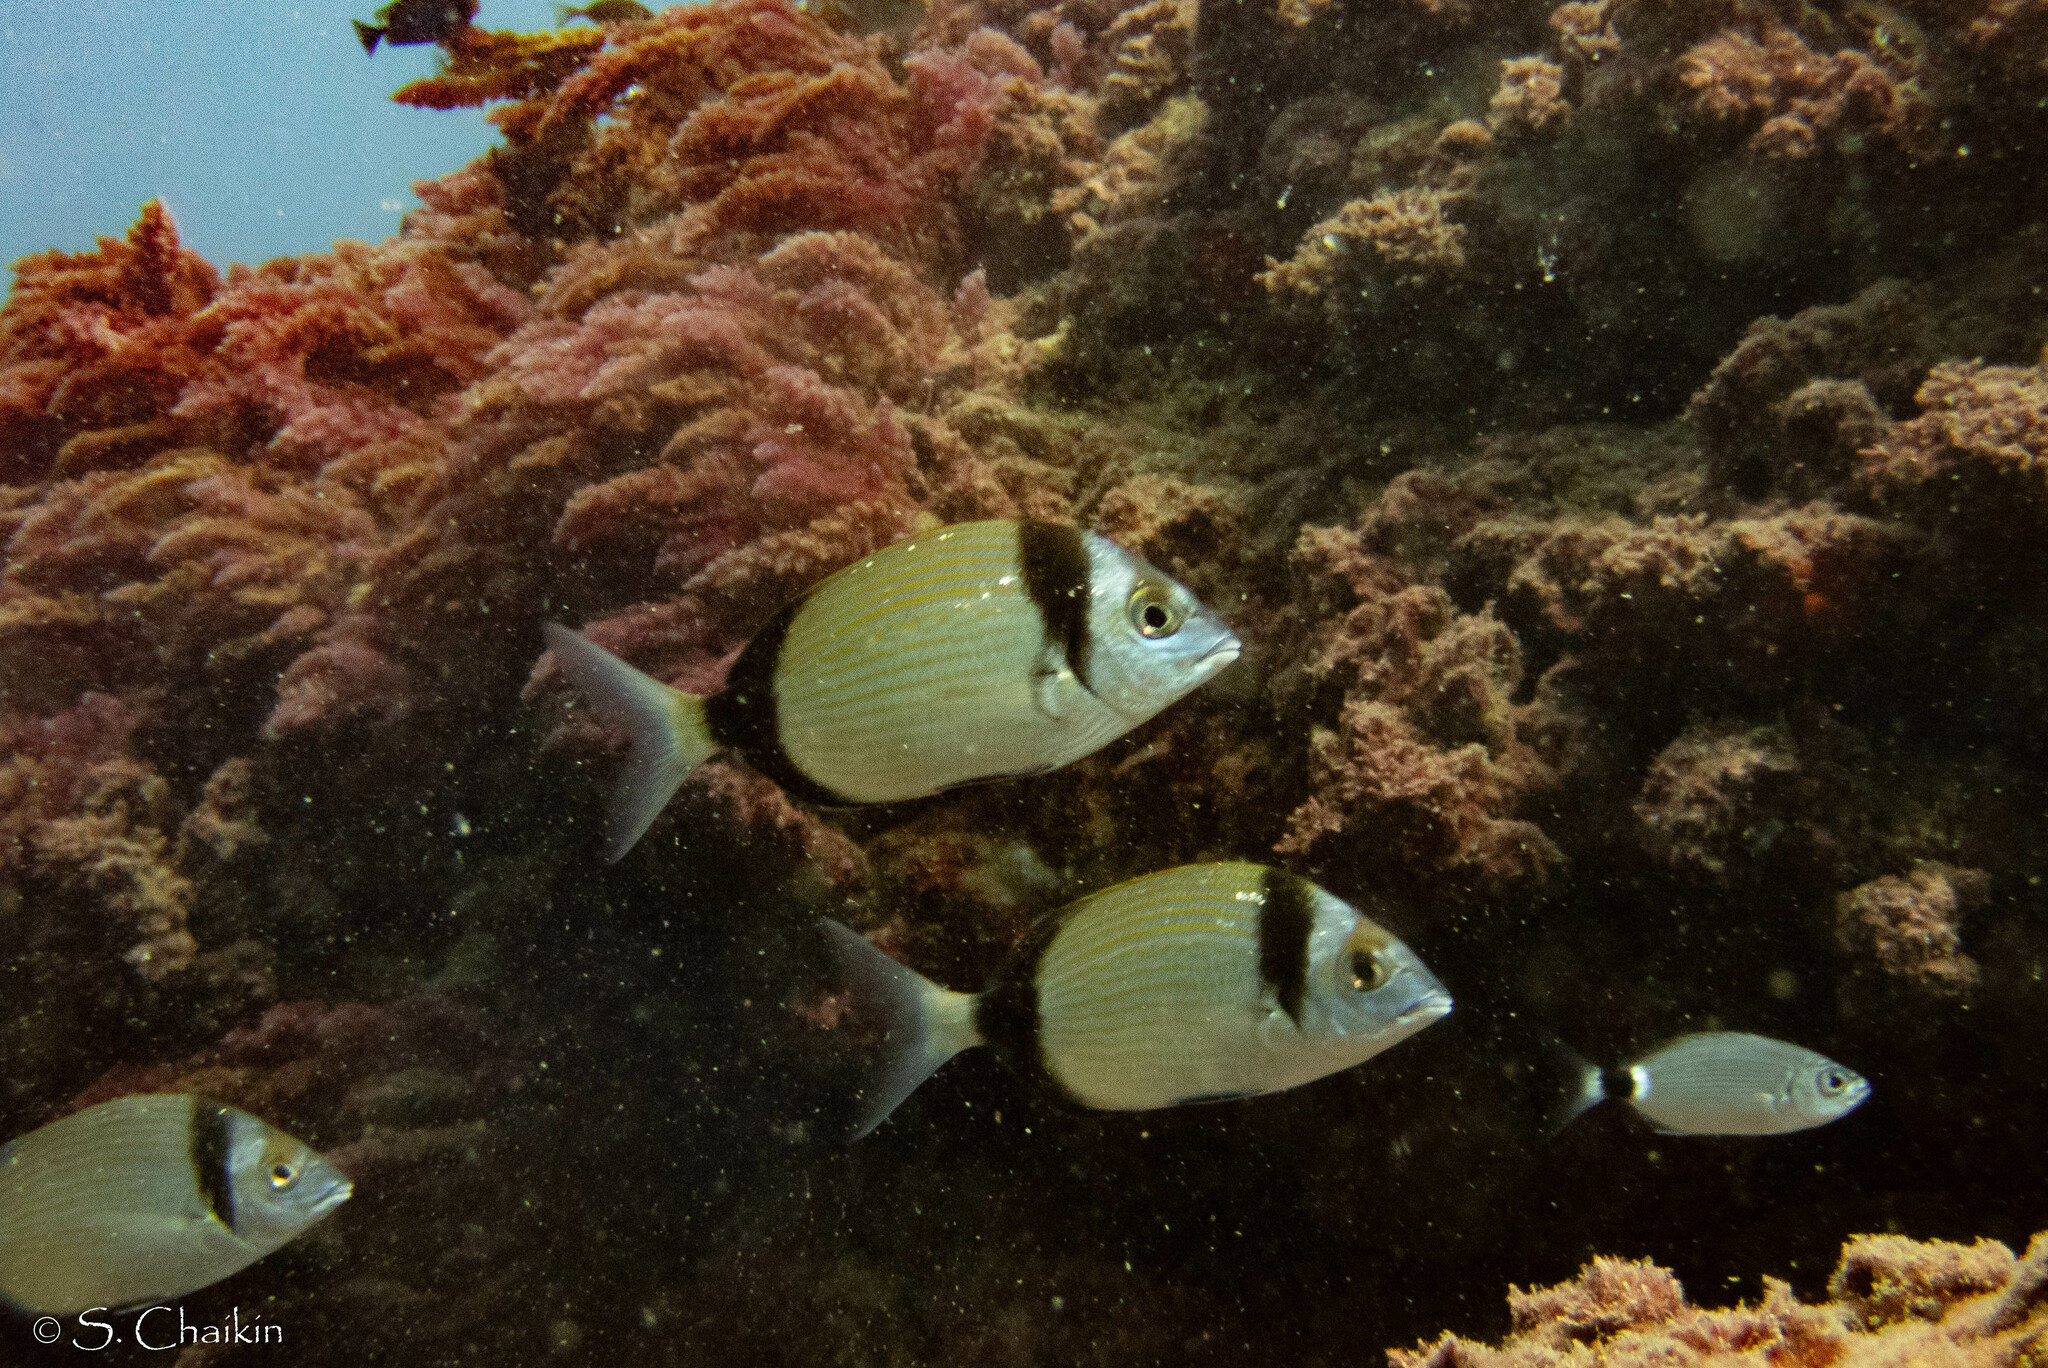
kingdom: Animalia
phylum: Chordata
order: Perciformes
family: Sparidae
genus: Diplodus
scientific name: Diplodus vulgaris
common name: Common two-banded seabream
